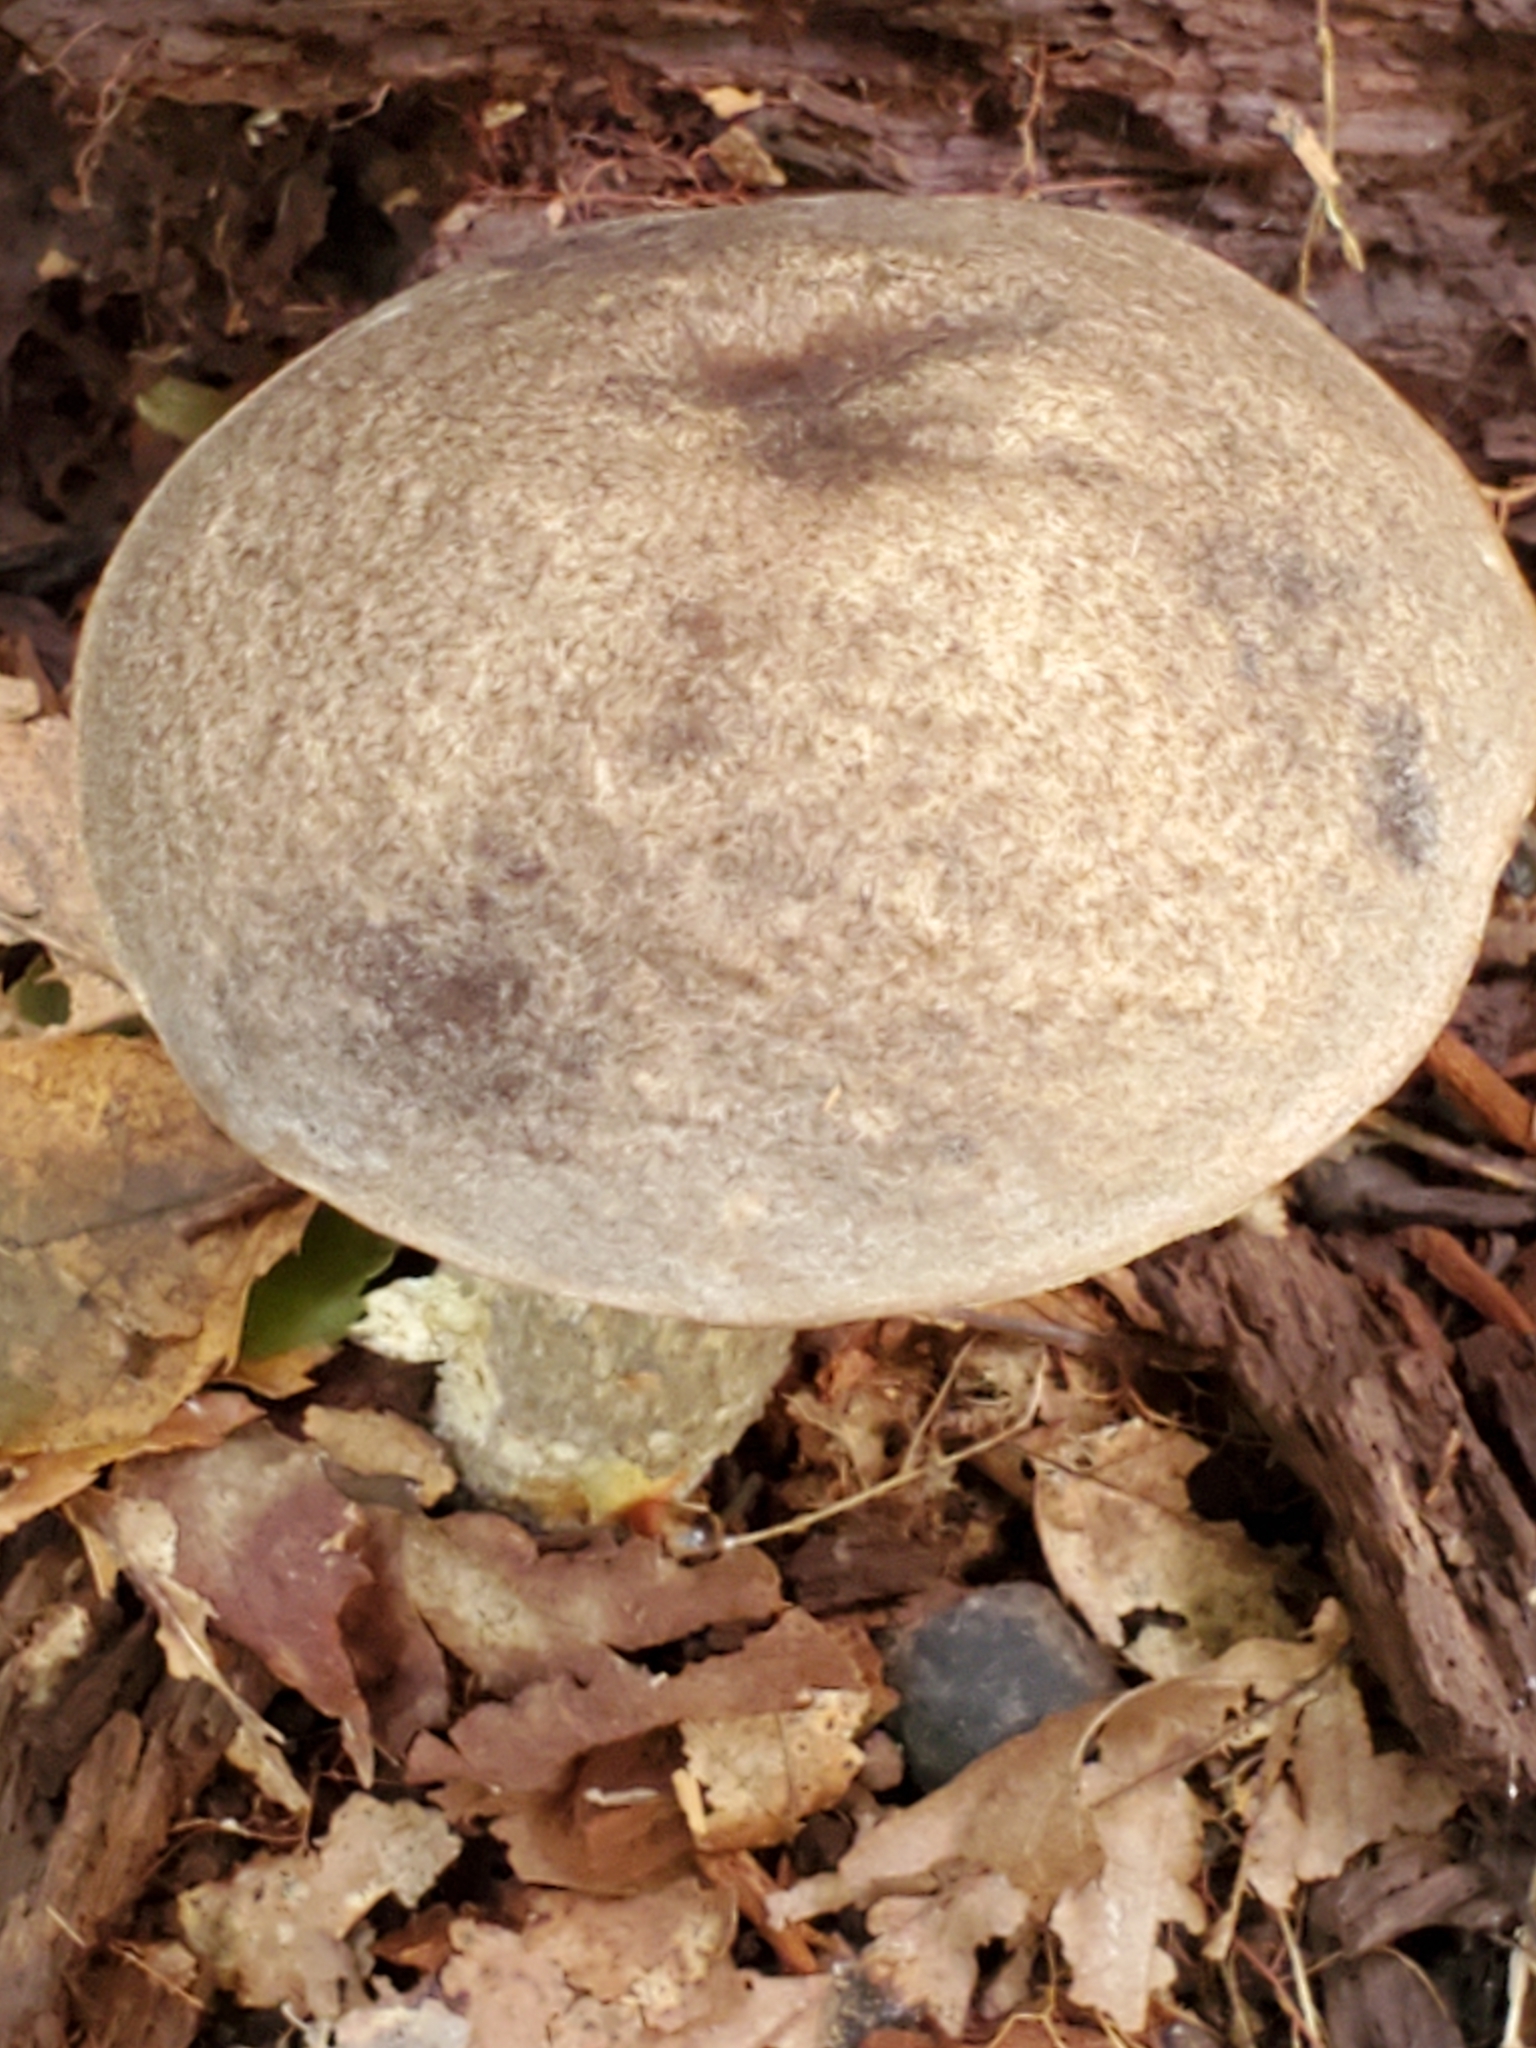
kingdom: Fungi
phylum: Basidiomycota
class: Agaricomycetes
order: Boletales
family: Boletaceae
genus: Leccinum
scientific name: Leccinum scabrum
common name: Blushing bolete
